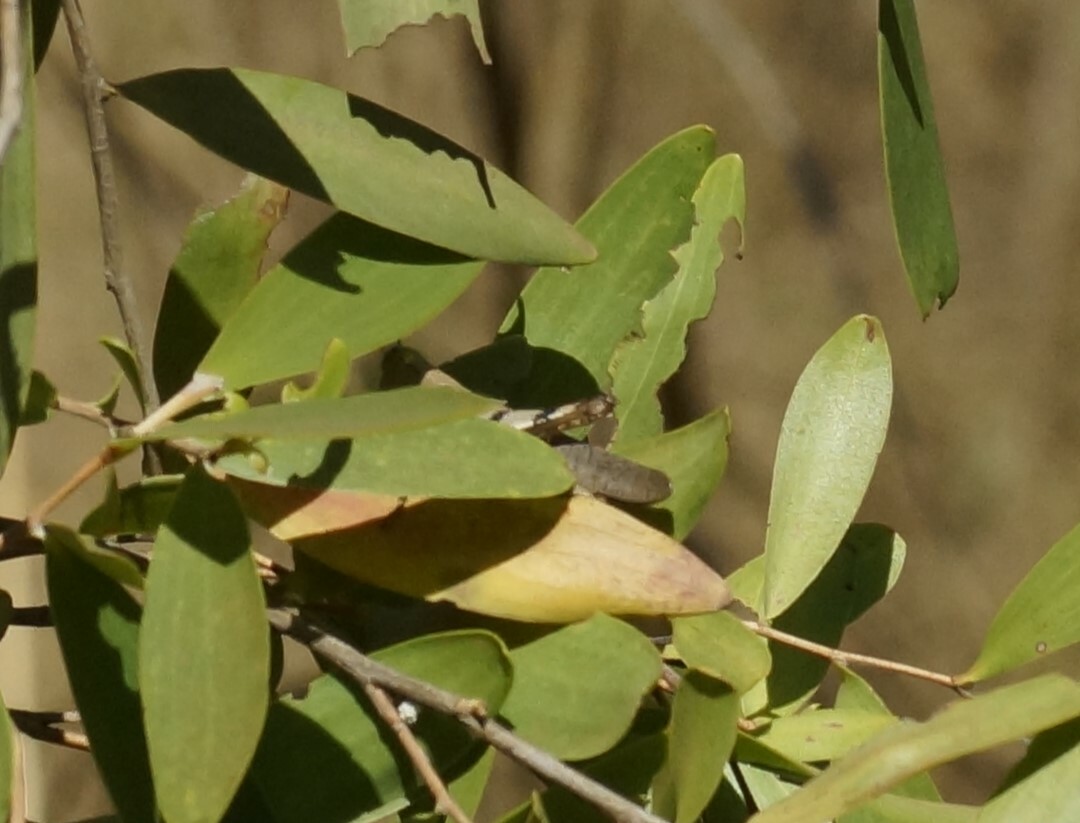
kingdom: Animalia
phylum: Arthropoda
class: Insecta
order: Orthoptera
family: Acrididae
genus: Stenocatantops
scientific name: Stenocatantops angustifrons
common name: Common tropical sharptail
